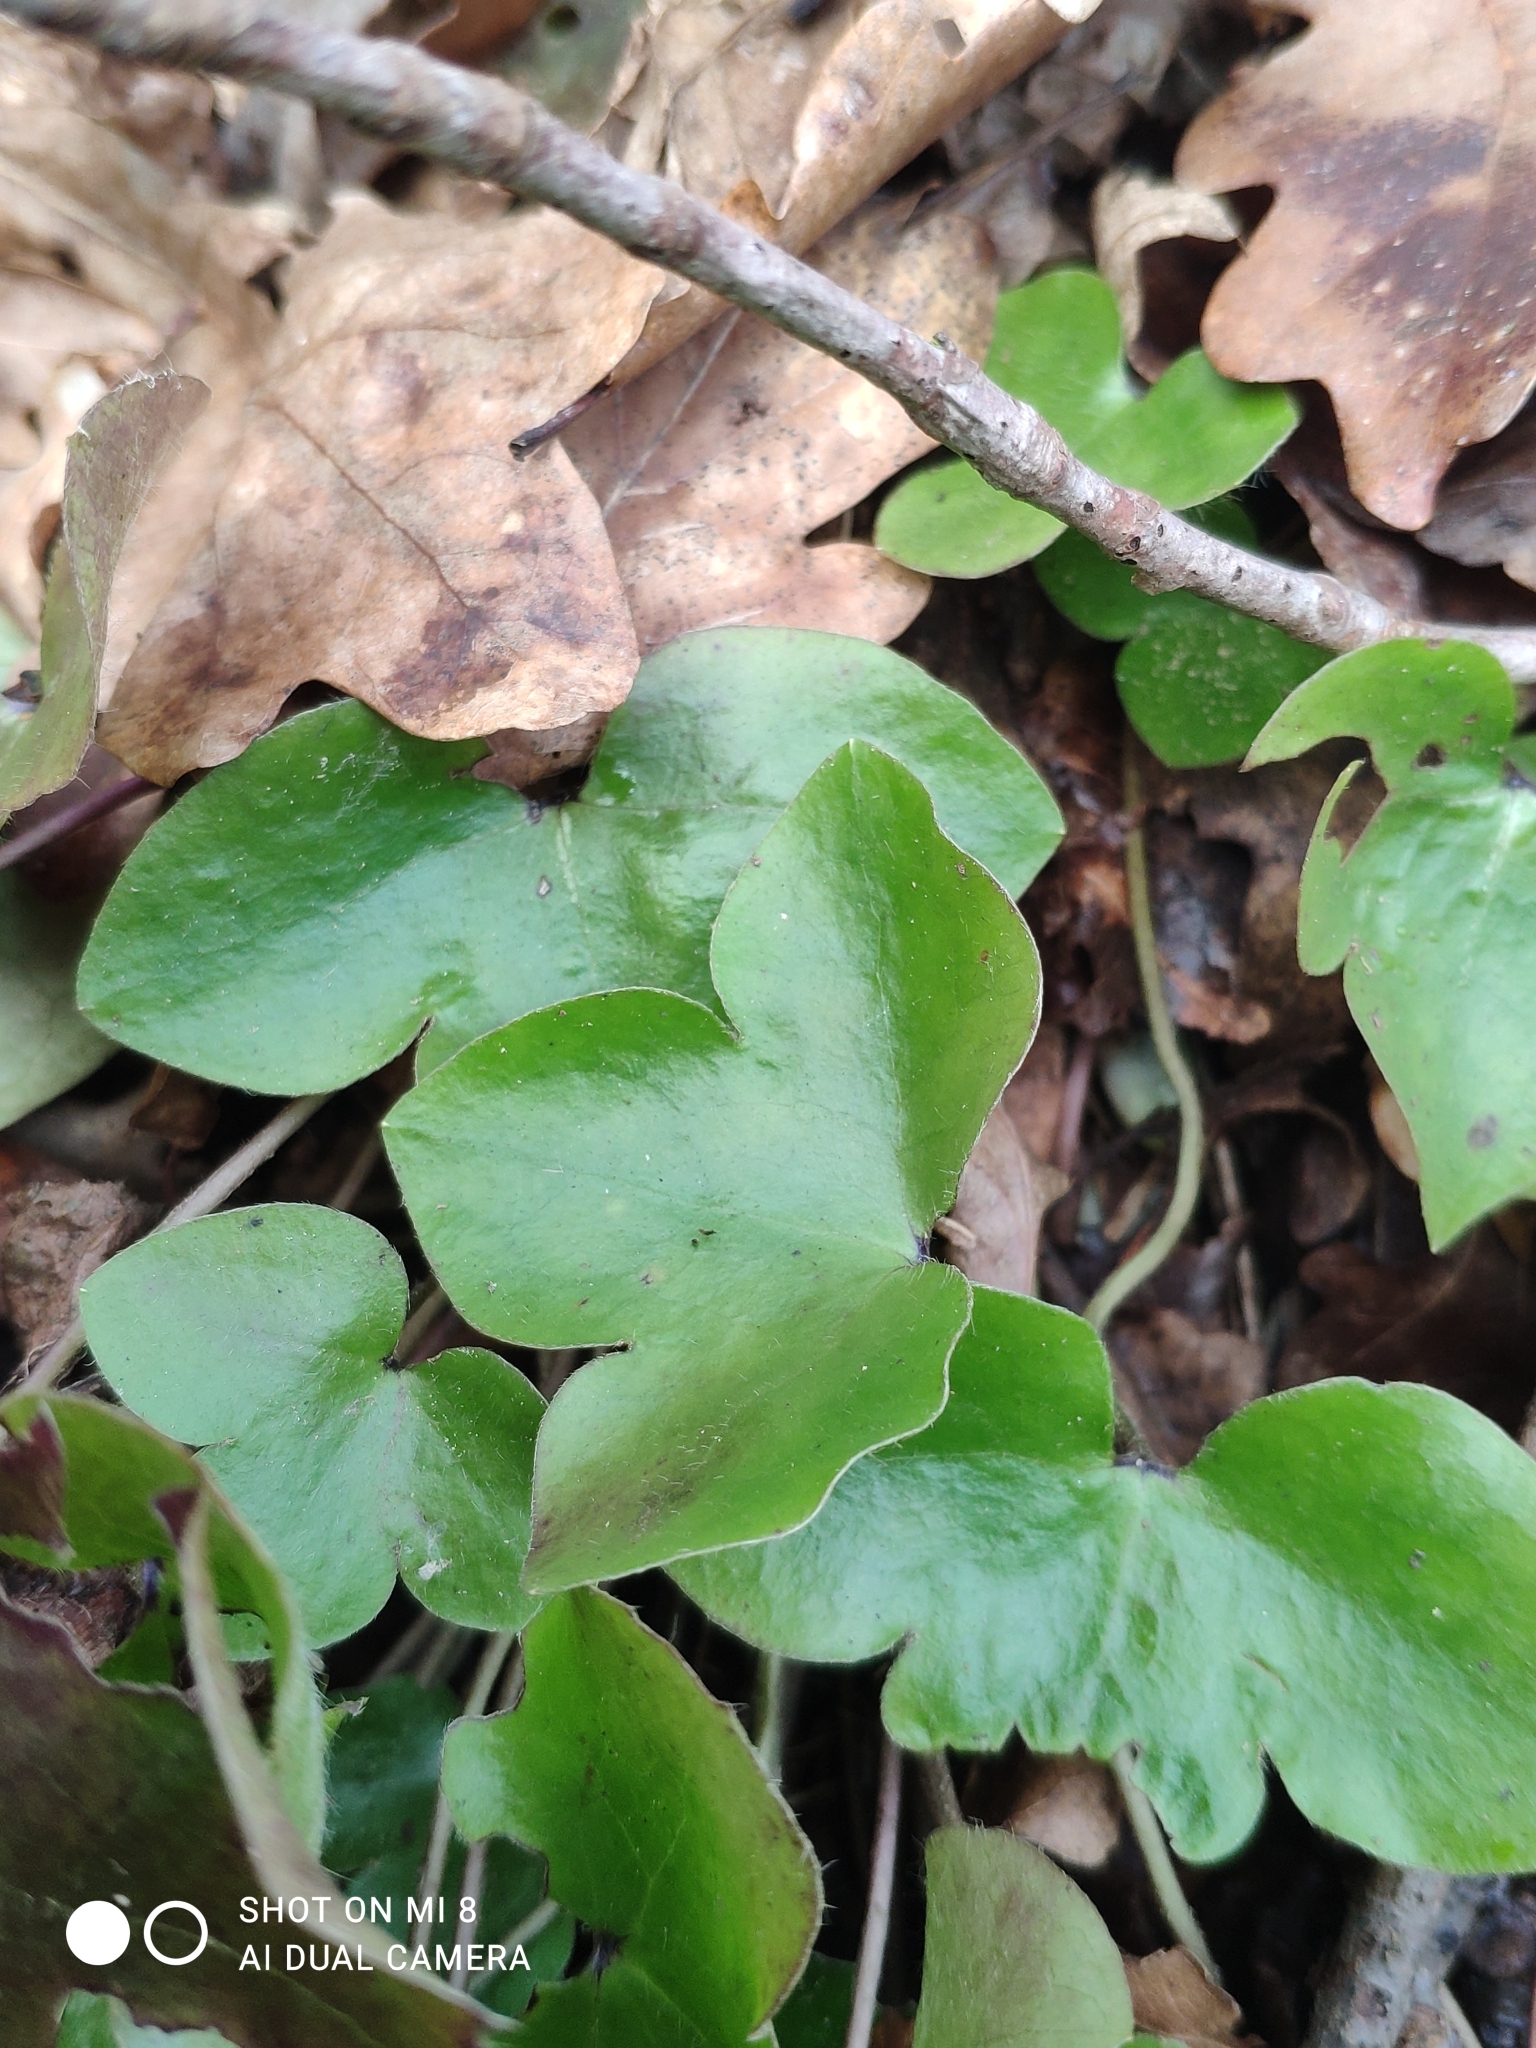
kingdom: Plantae
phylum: Tracheophyta
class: Magnoliopsida
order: Ranunculales
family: Ranunculaceae
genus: Hepatica
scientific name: Hepatica nobilis
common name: Liverleaf
